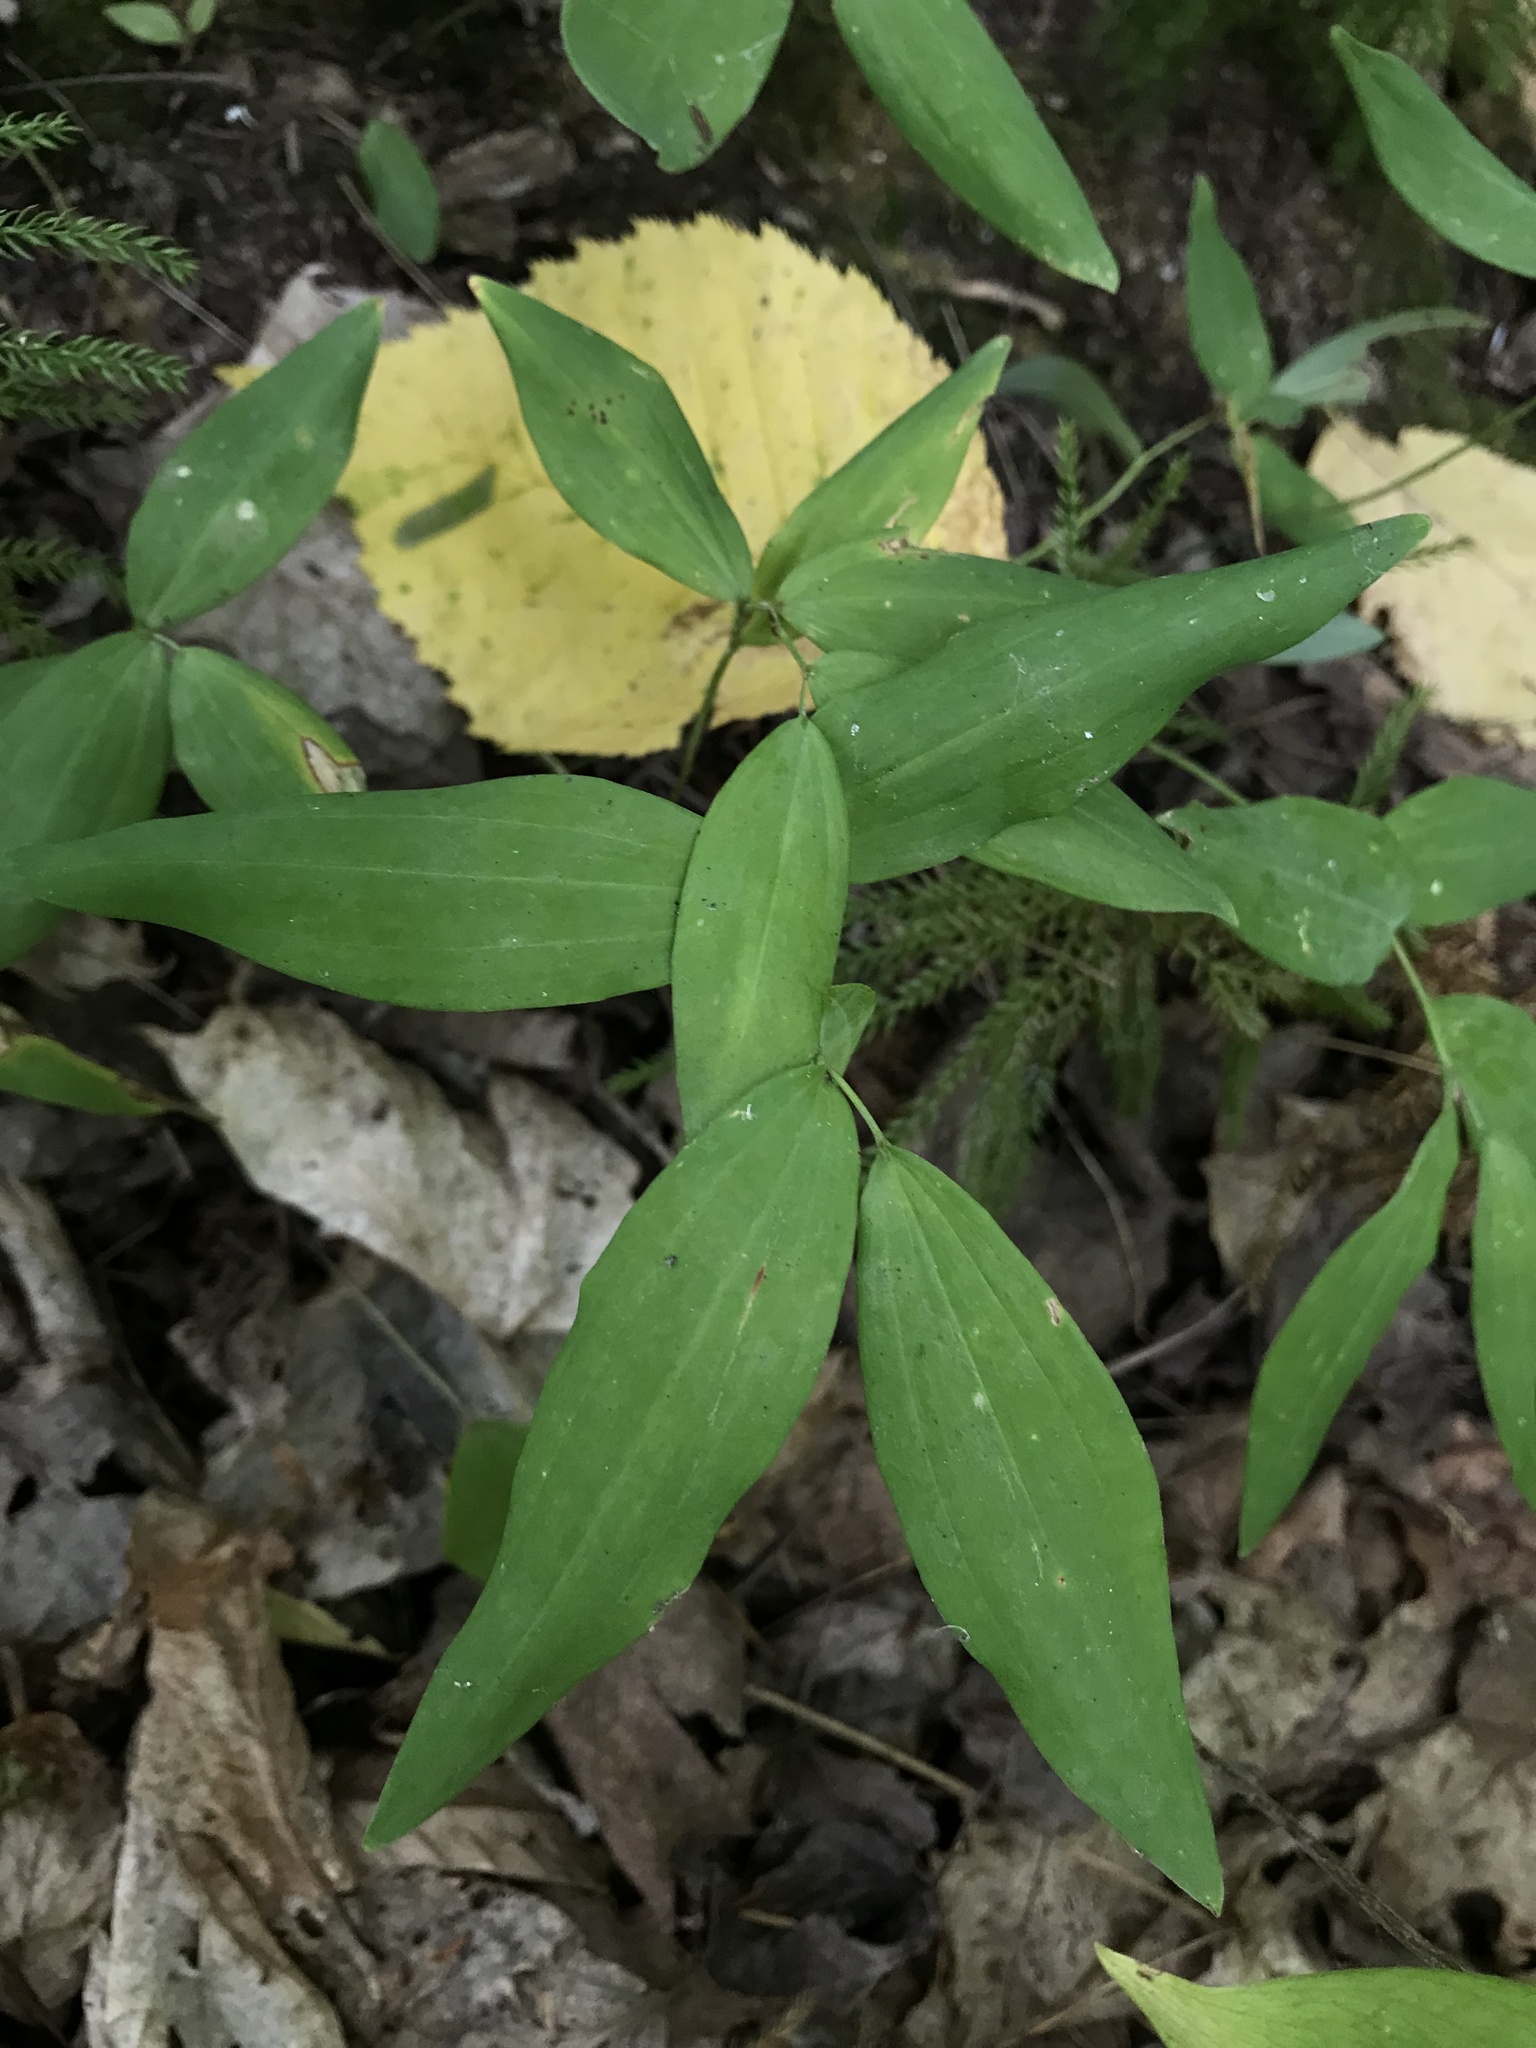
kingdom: Plantae
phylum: Tracheophyta
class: Liliopsida
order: Asparagales
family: Asparagaceae
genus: Polygonatum
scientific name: Polygonatum pubescens
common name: Downy solomon's seal
